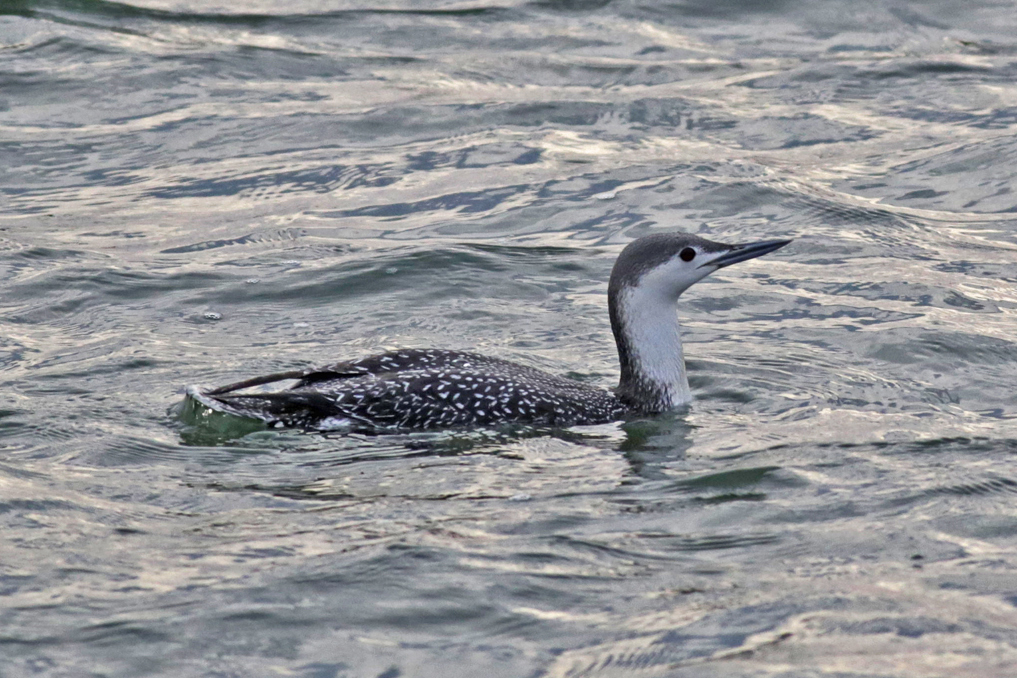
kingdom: Animalia
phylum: Chordata
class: Aves
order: Gaviiformes
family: Gaviidae
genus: Gavia
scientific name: Gavia stellata
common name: Red-throated loon
